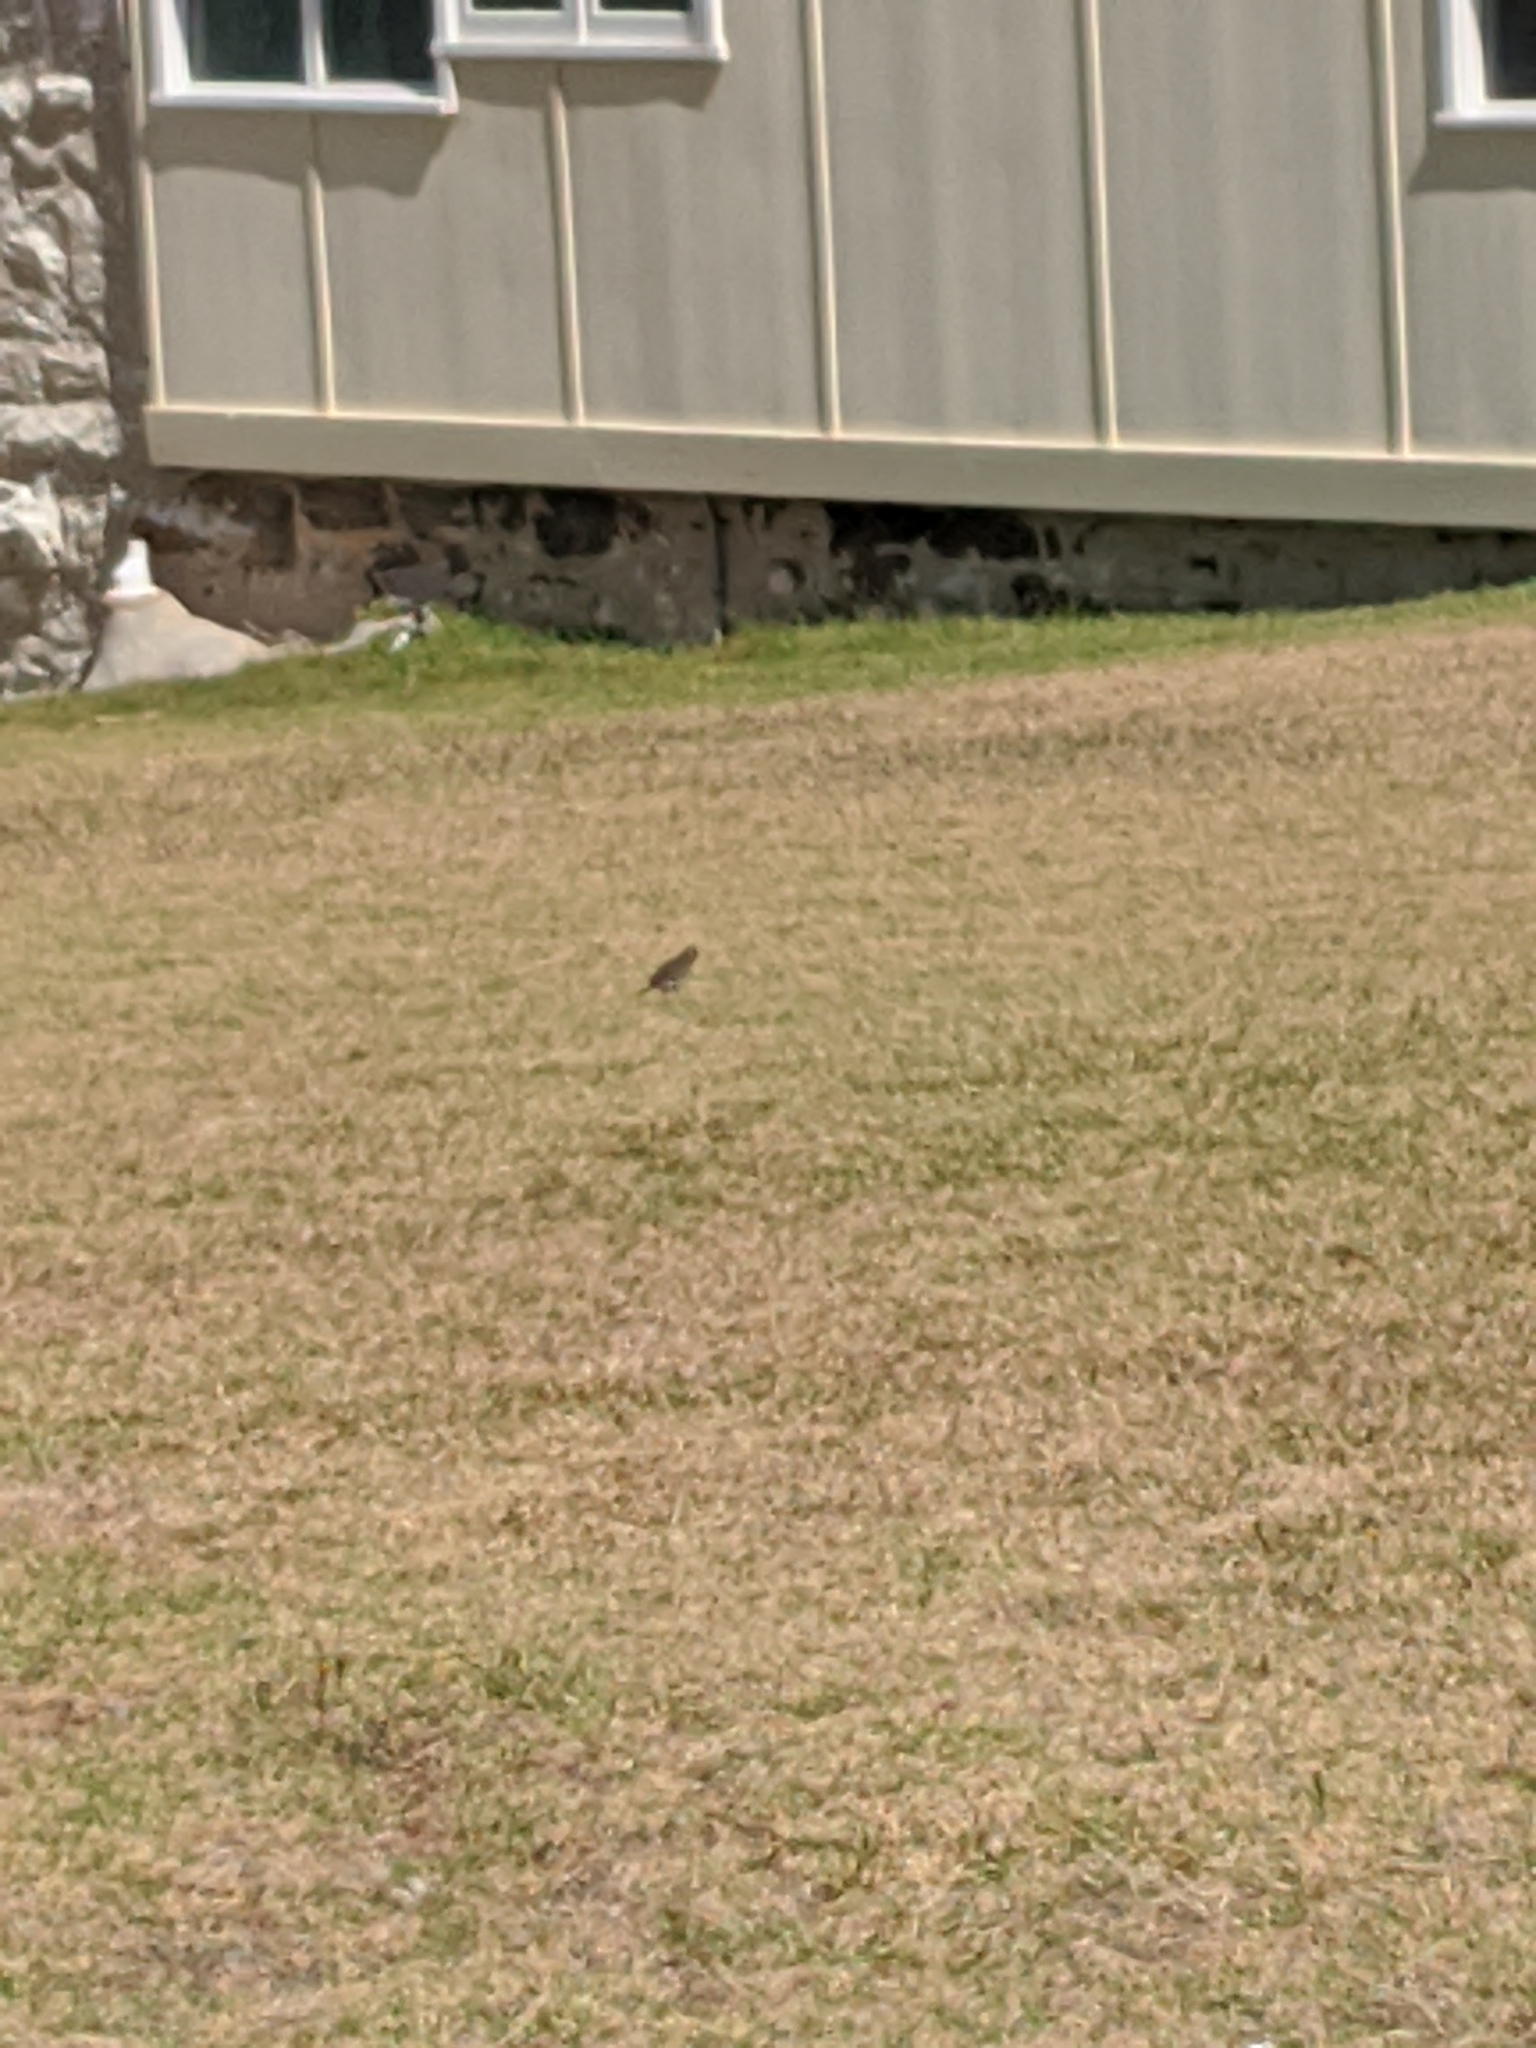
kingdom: Animalia
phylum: Chordata
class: Aves
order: Passeriformes
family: Rhipiduridae
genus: Rhipidura
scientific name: Rhipidura albiscapa
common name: Grey fantail
